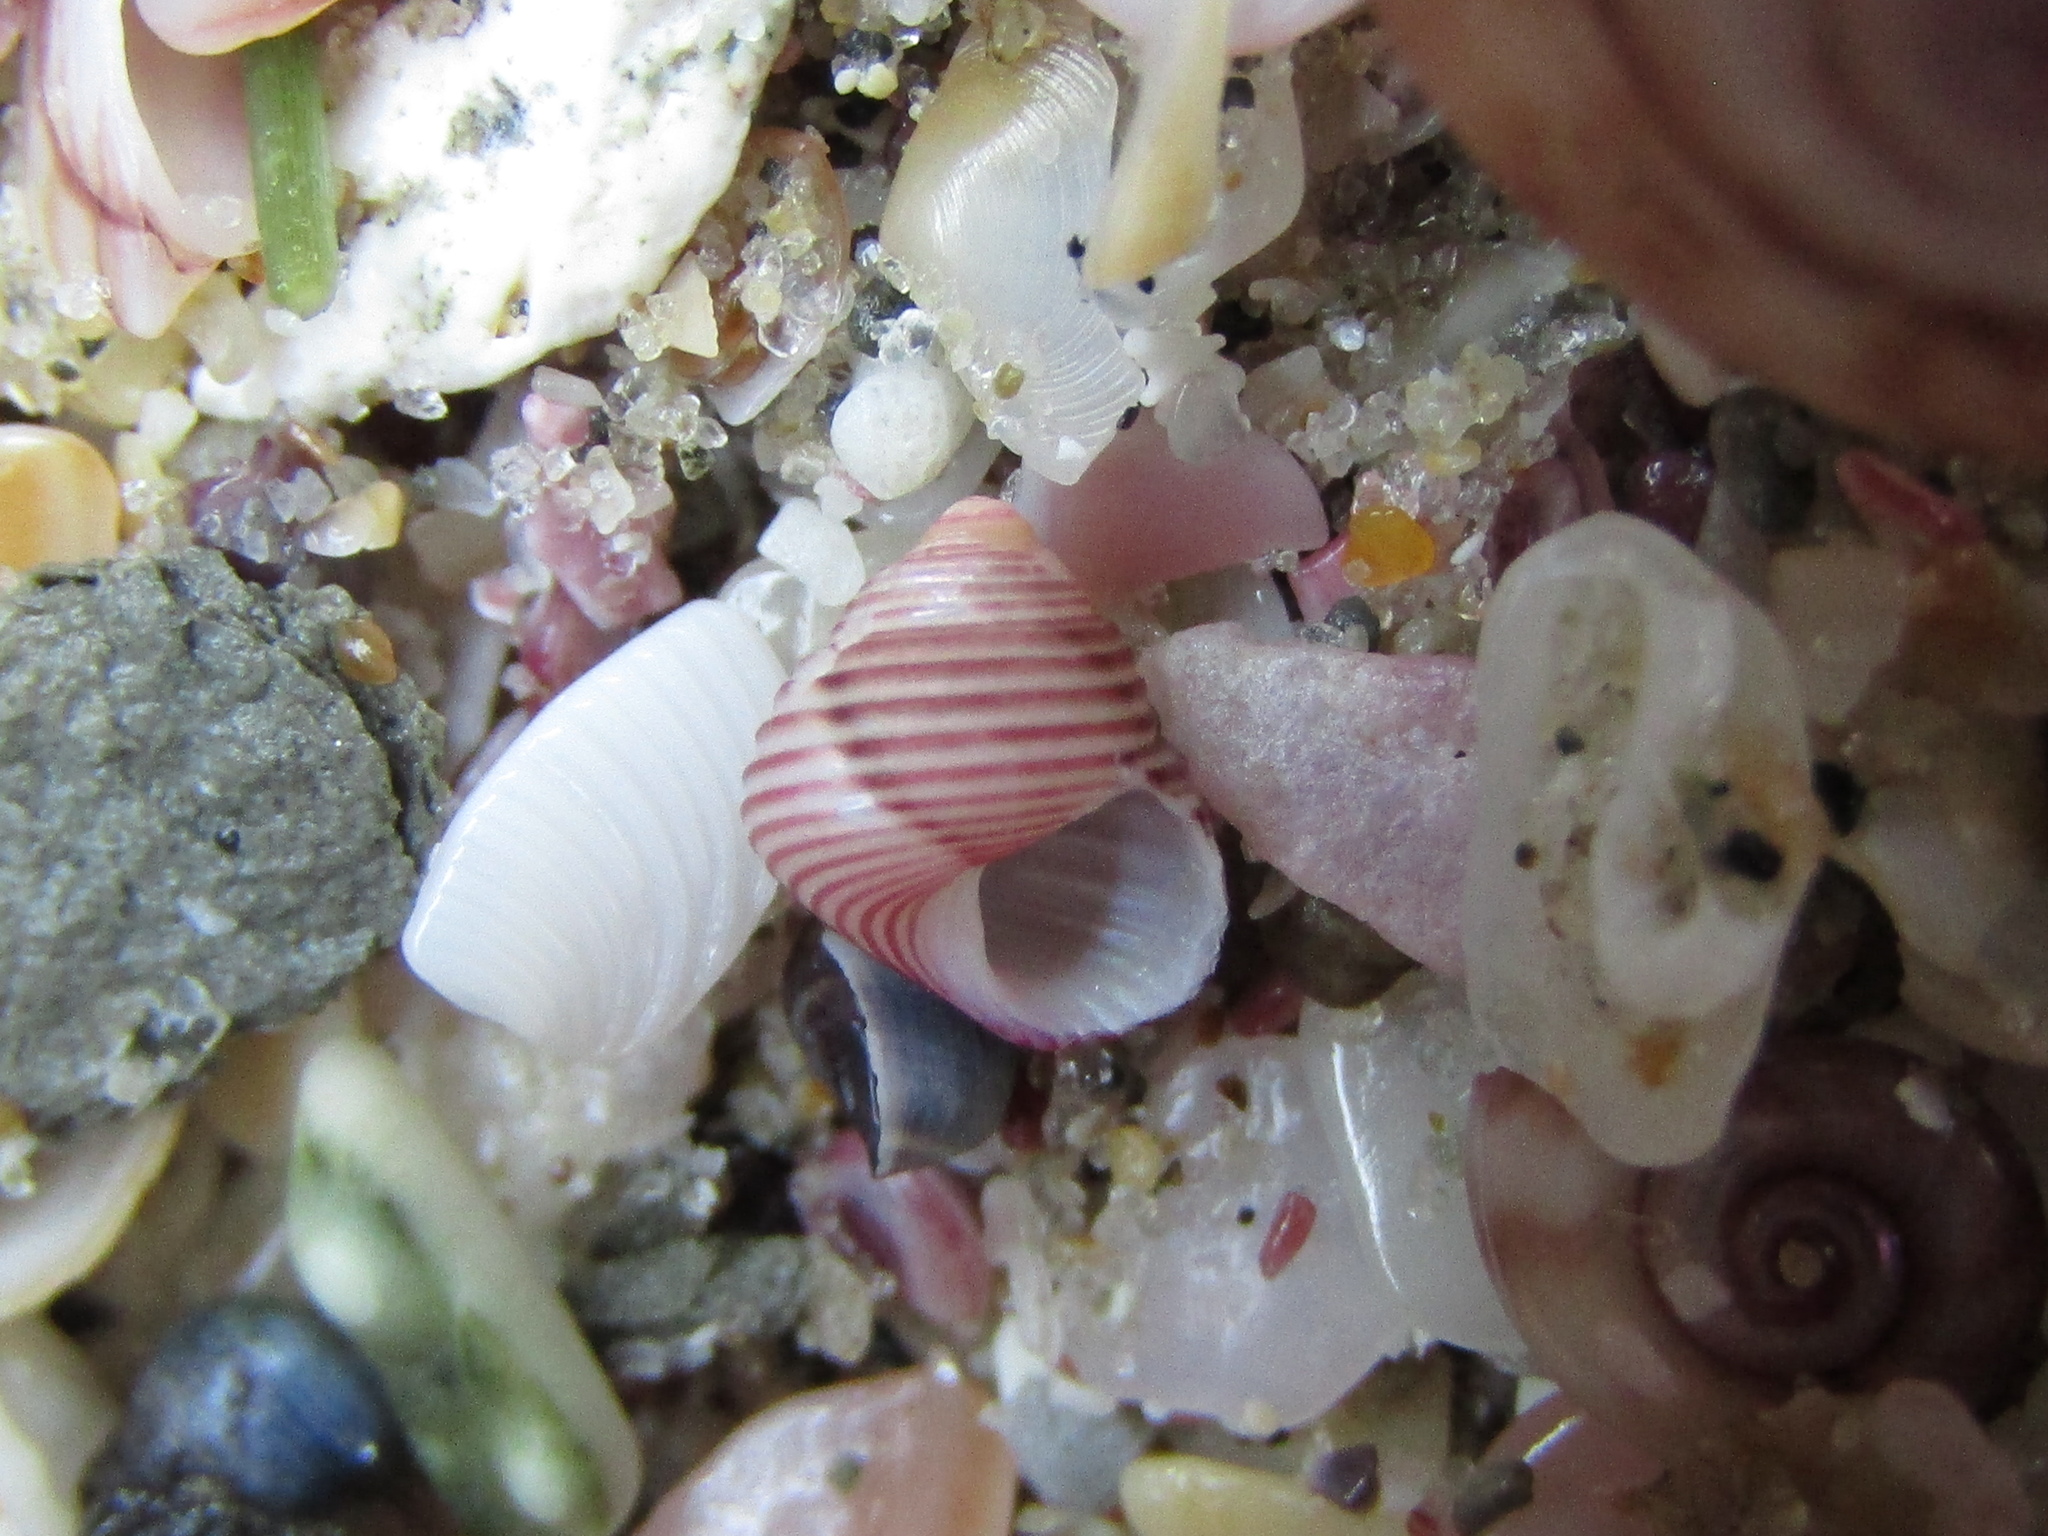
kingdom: Animalia
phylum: Mollusca
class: Gastropoda
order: Trochida
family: Trochidae
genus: Roseaplagis
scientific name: Roseaplagis rufozona
